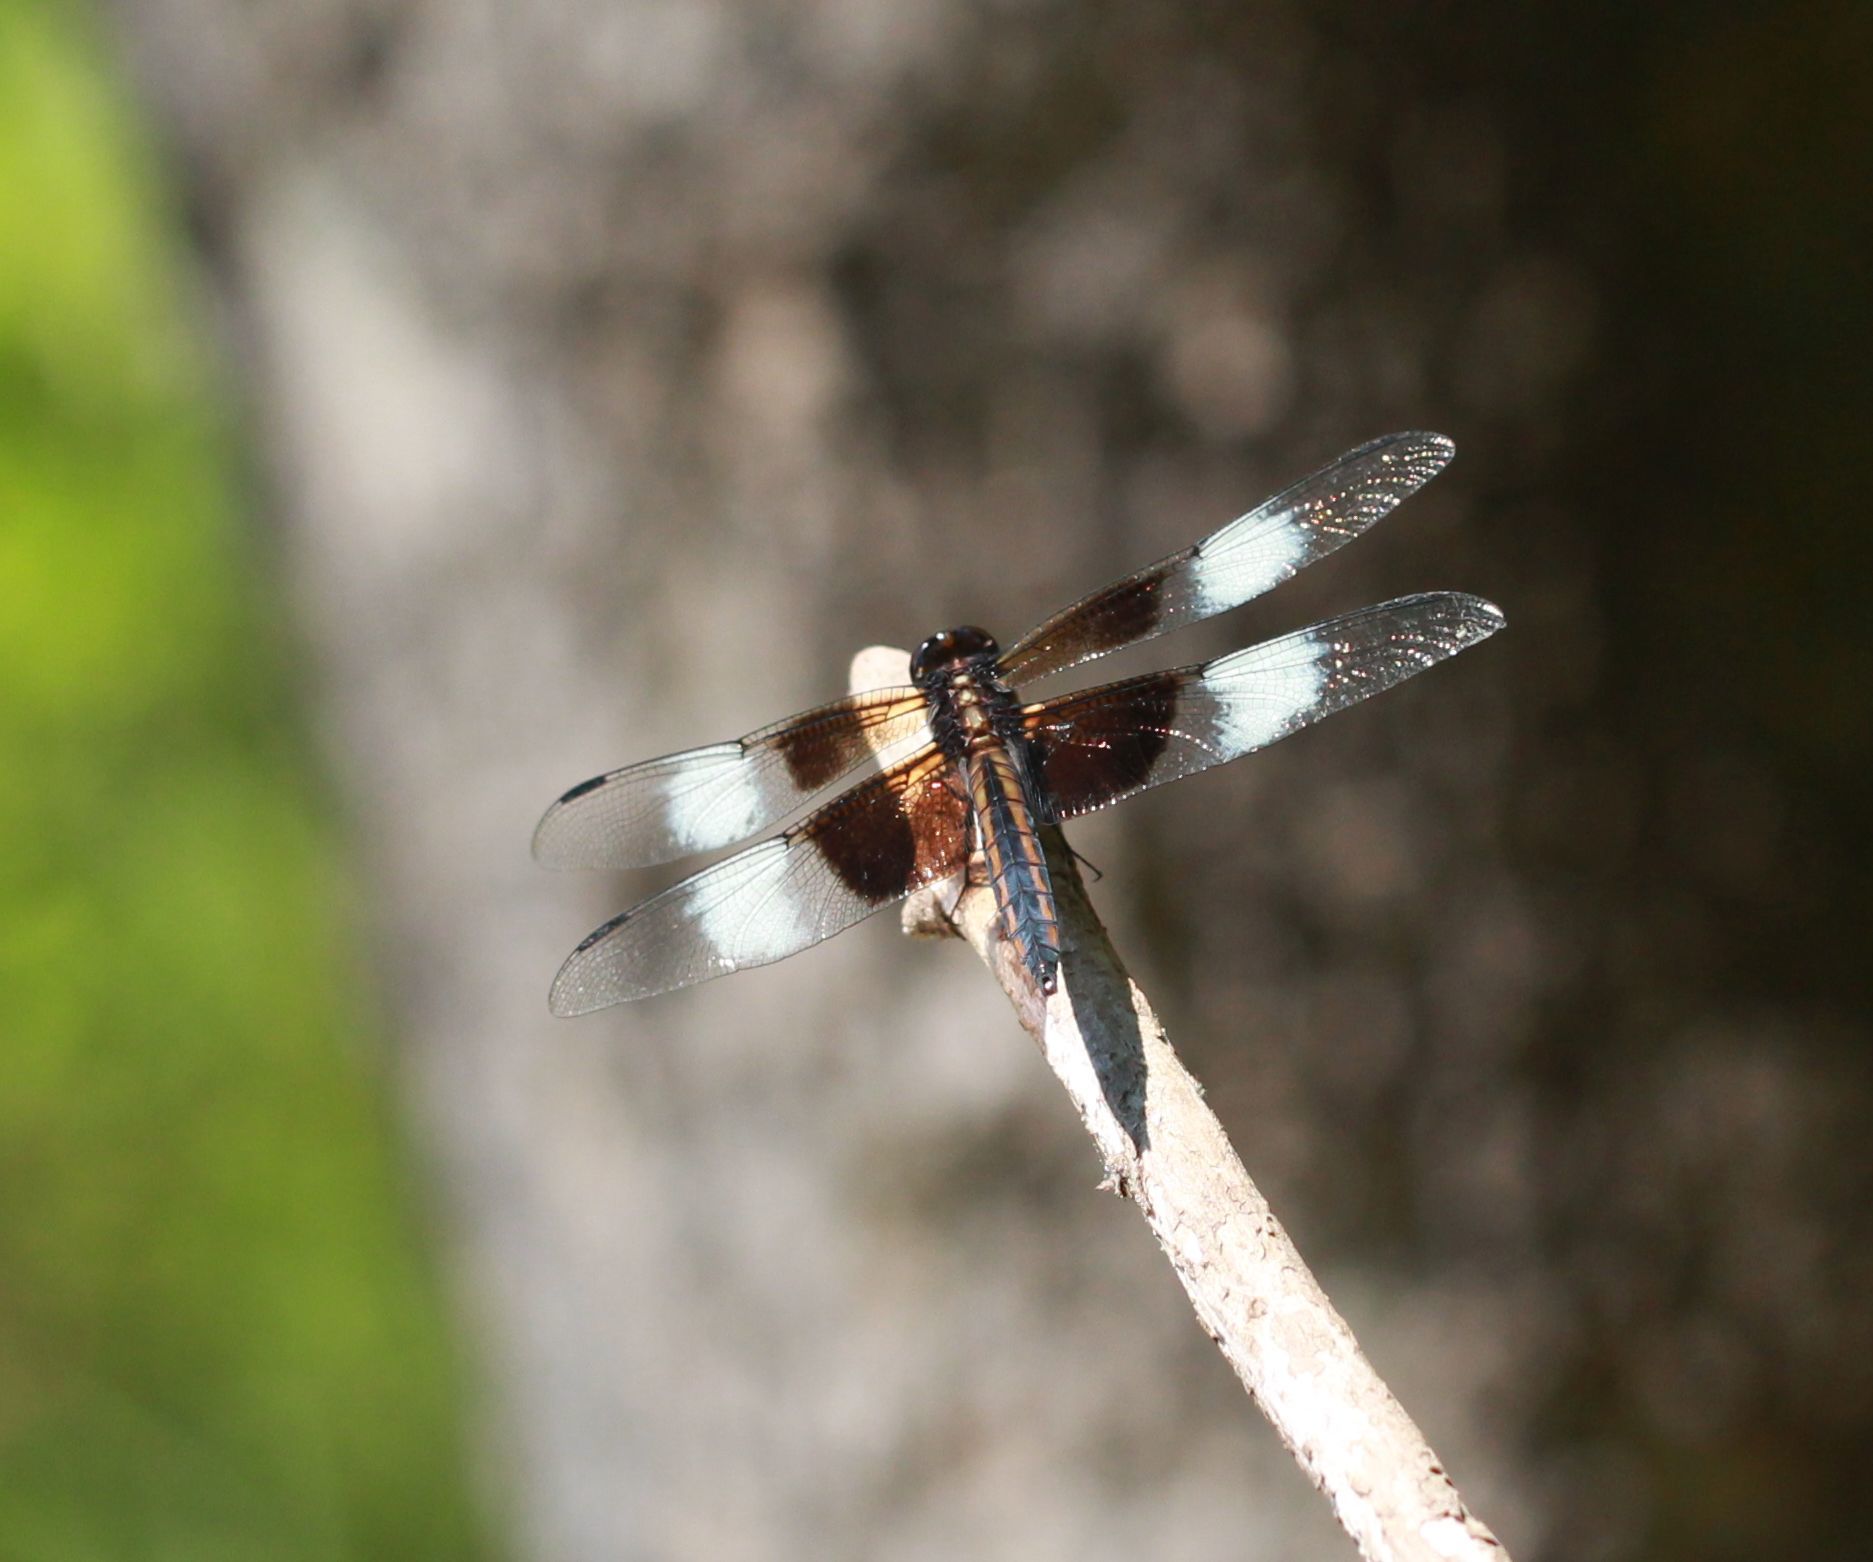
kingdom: Animalia
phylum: Arthropoda
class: Insecta
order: Odonata
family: Libellulidae
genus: Libellula
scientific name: Libellula luctuosa
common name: Widow skimmer
